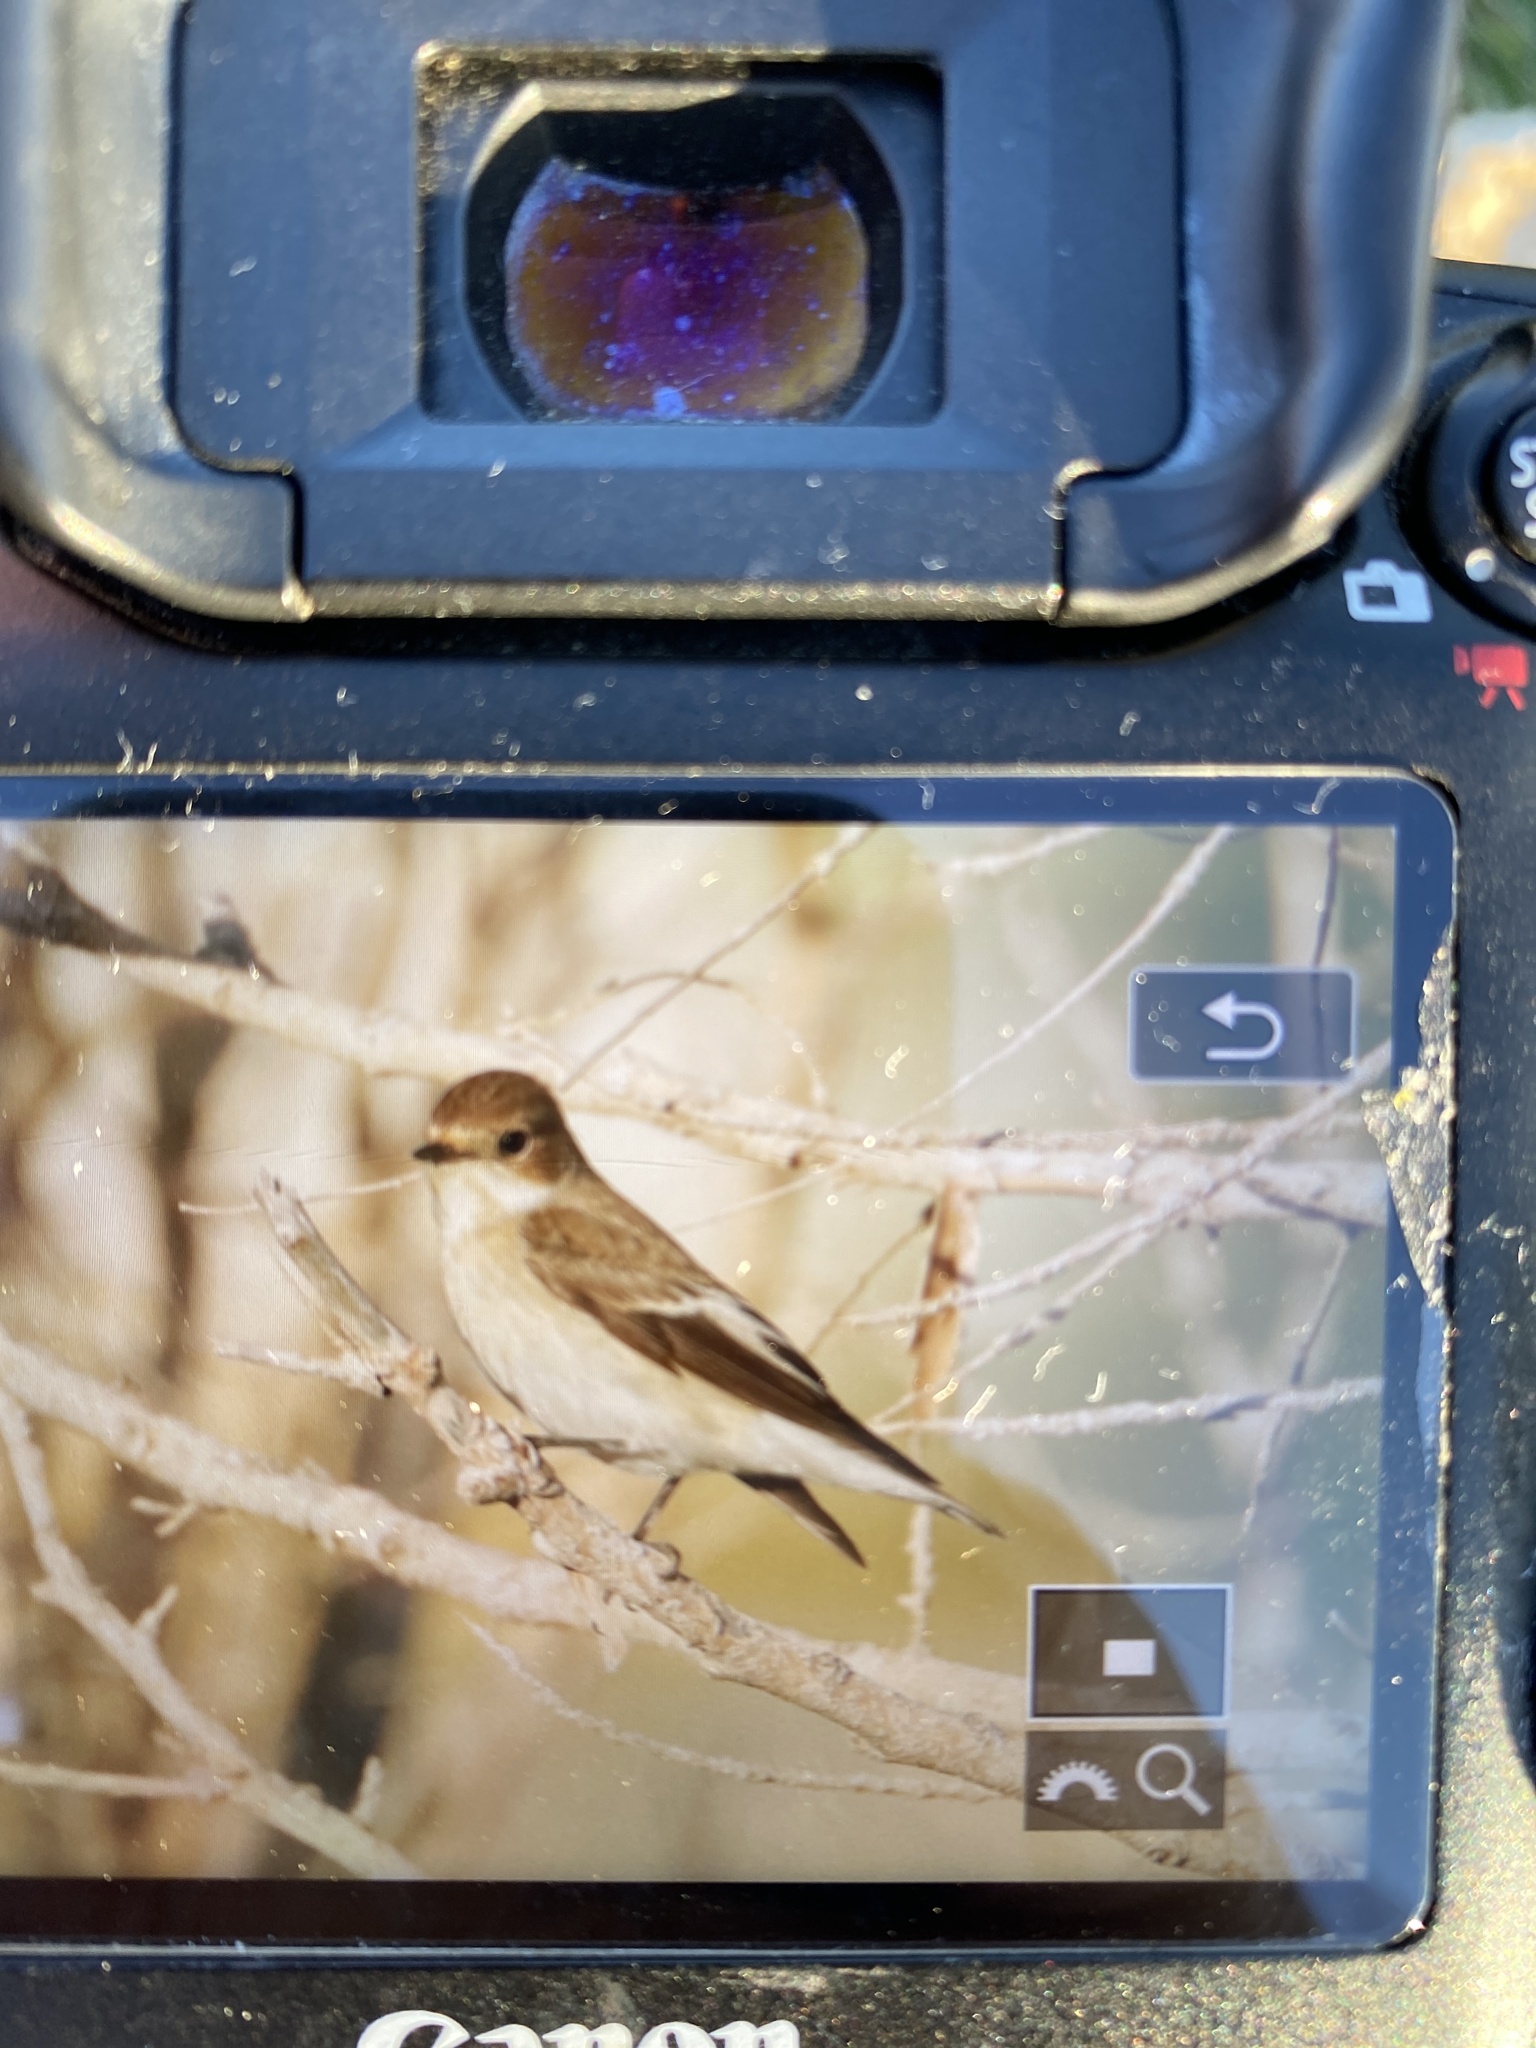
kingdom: Animalia
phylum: Chordata
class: Aves
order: Passeriformes
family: Muscicapidae
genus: Ficedula
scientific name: Ficedula hypoleuca
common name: European pied flycatcher
